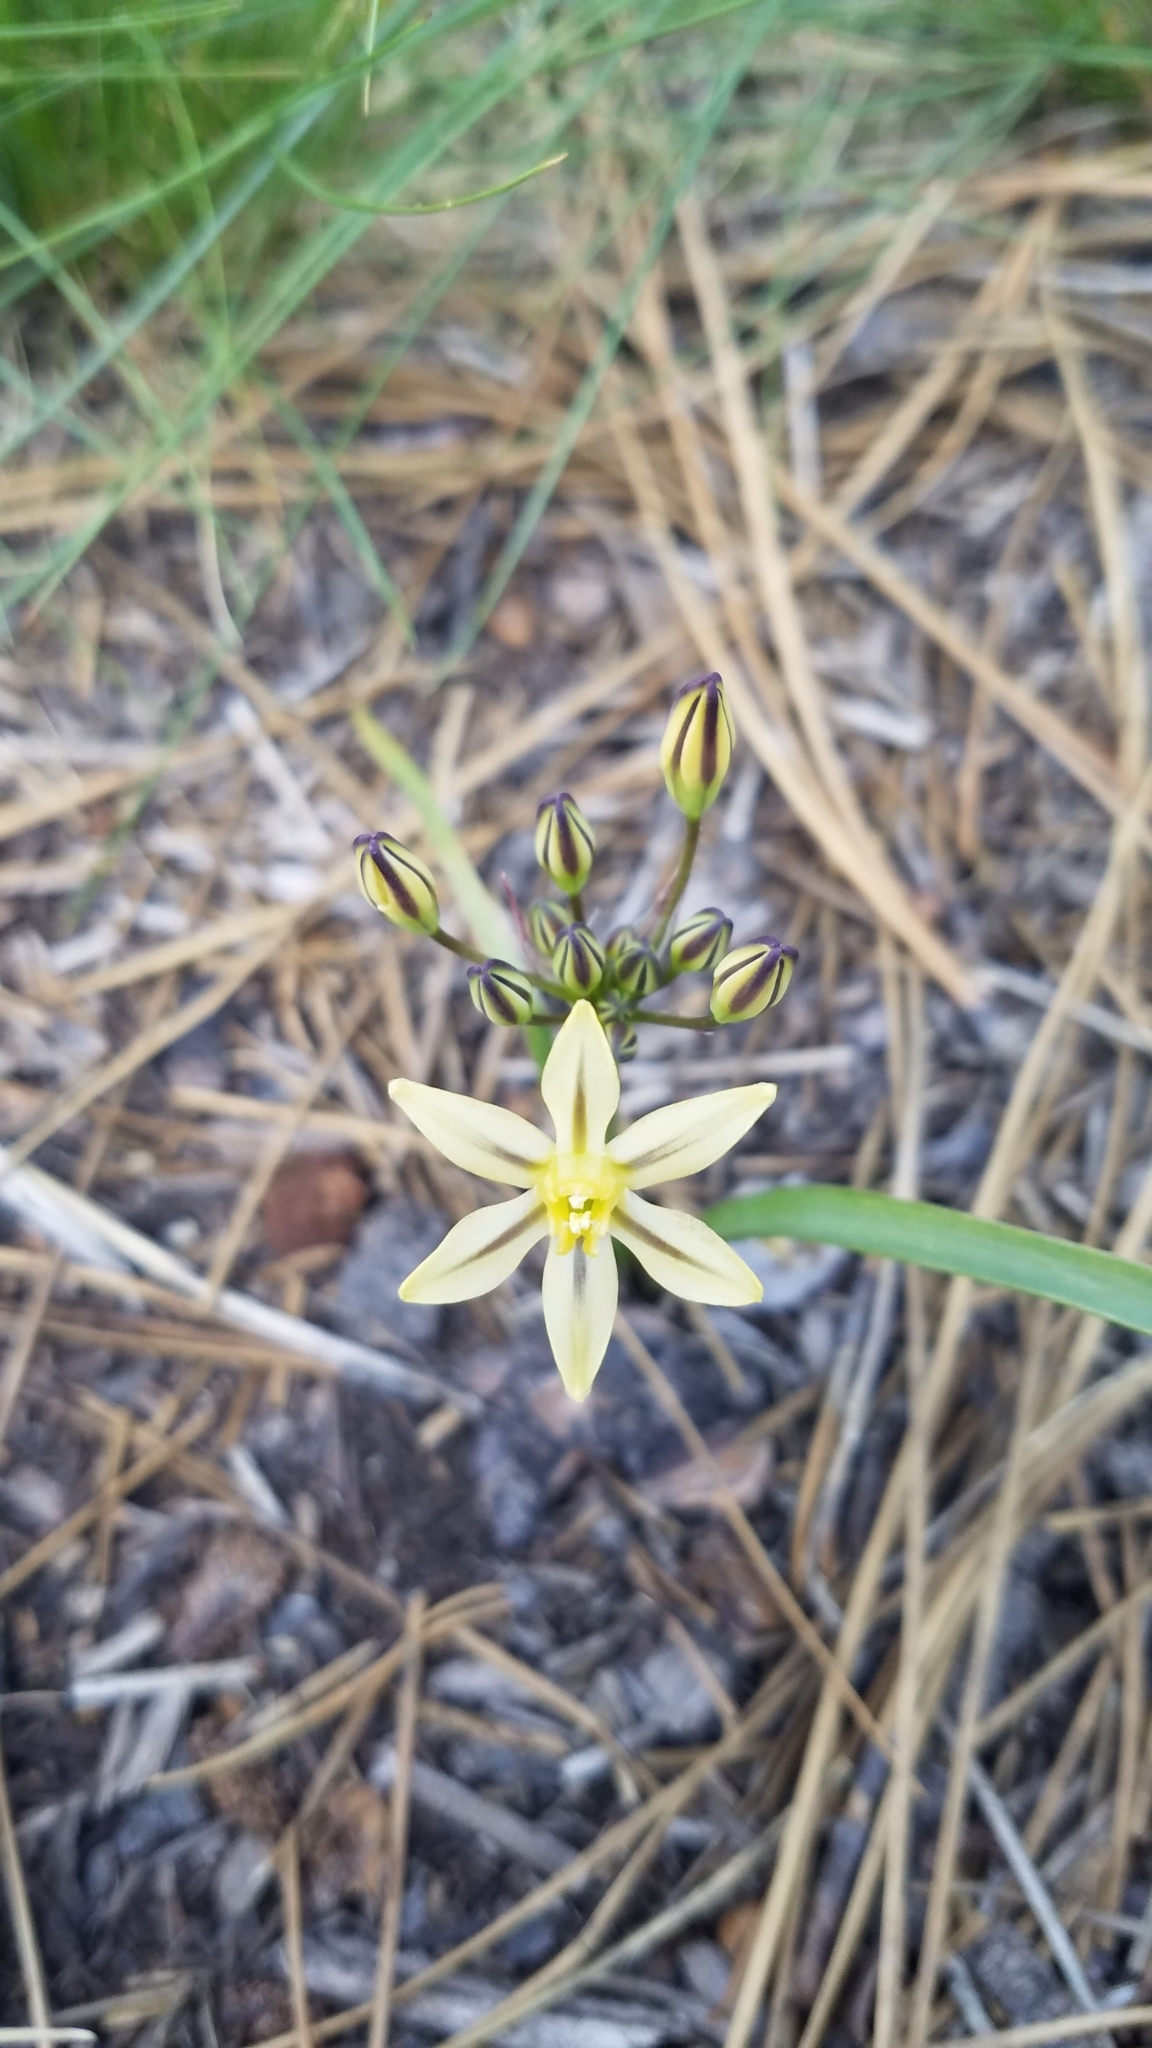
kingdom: Plantae
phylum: Tracheophyta
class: Liliopsida
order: Asparagales
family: Asparagaceae
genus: Triteleia
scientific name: Triteleia ixioides
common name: Yellow-brodiaea
